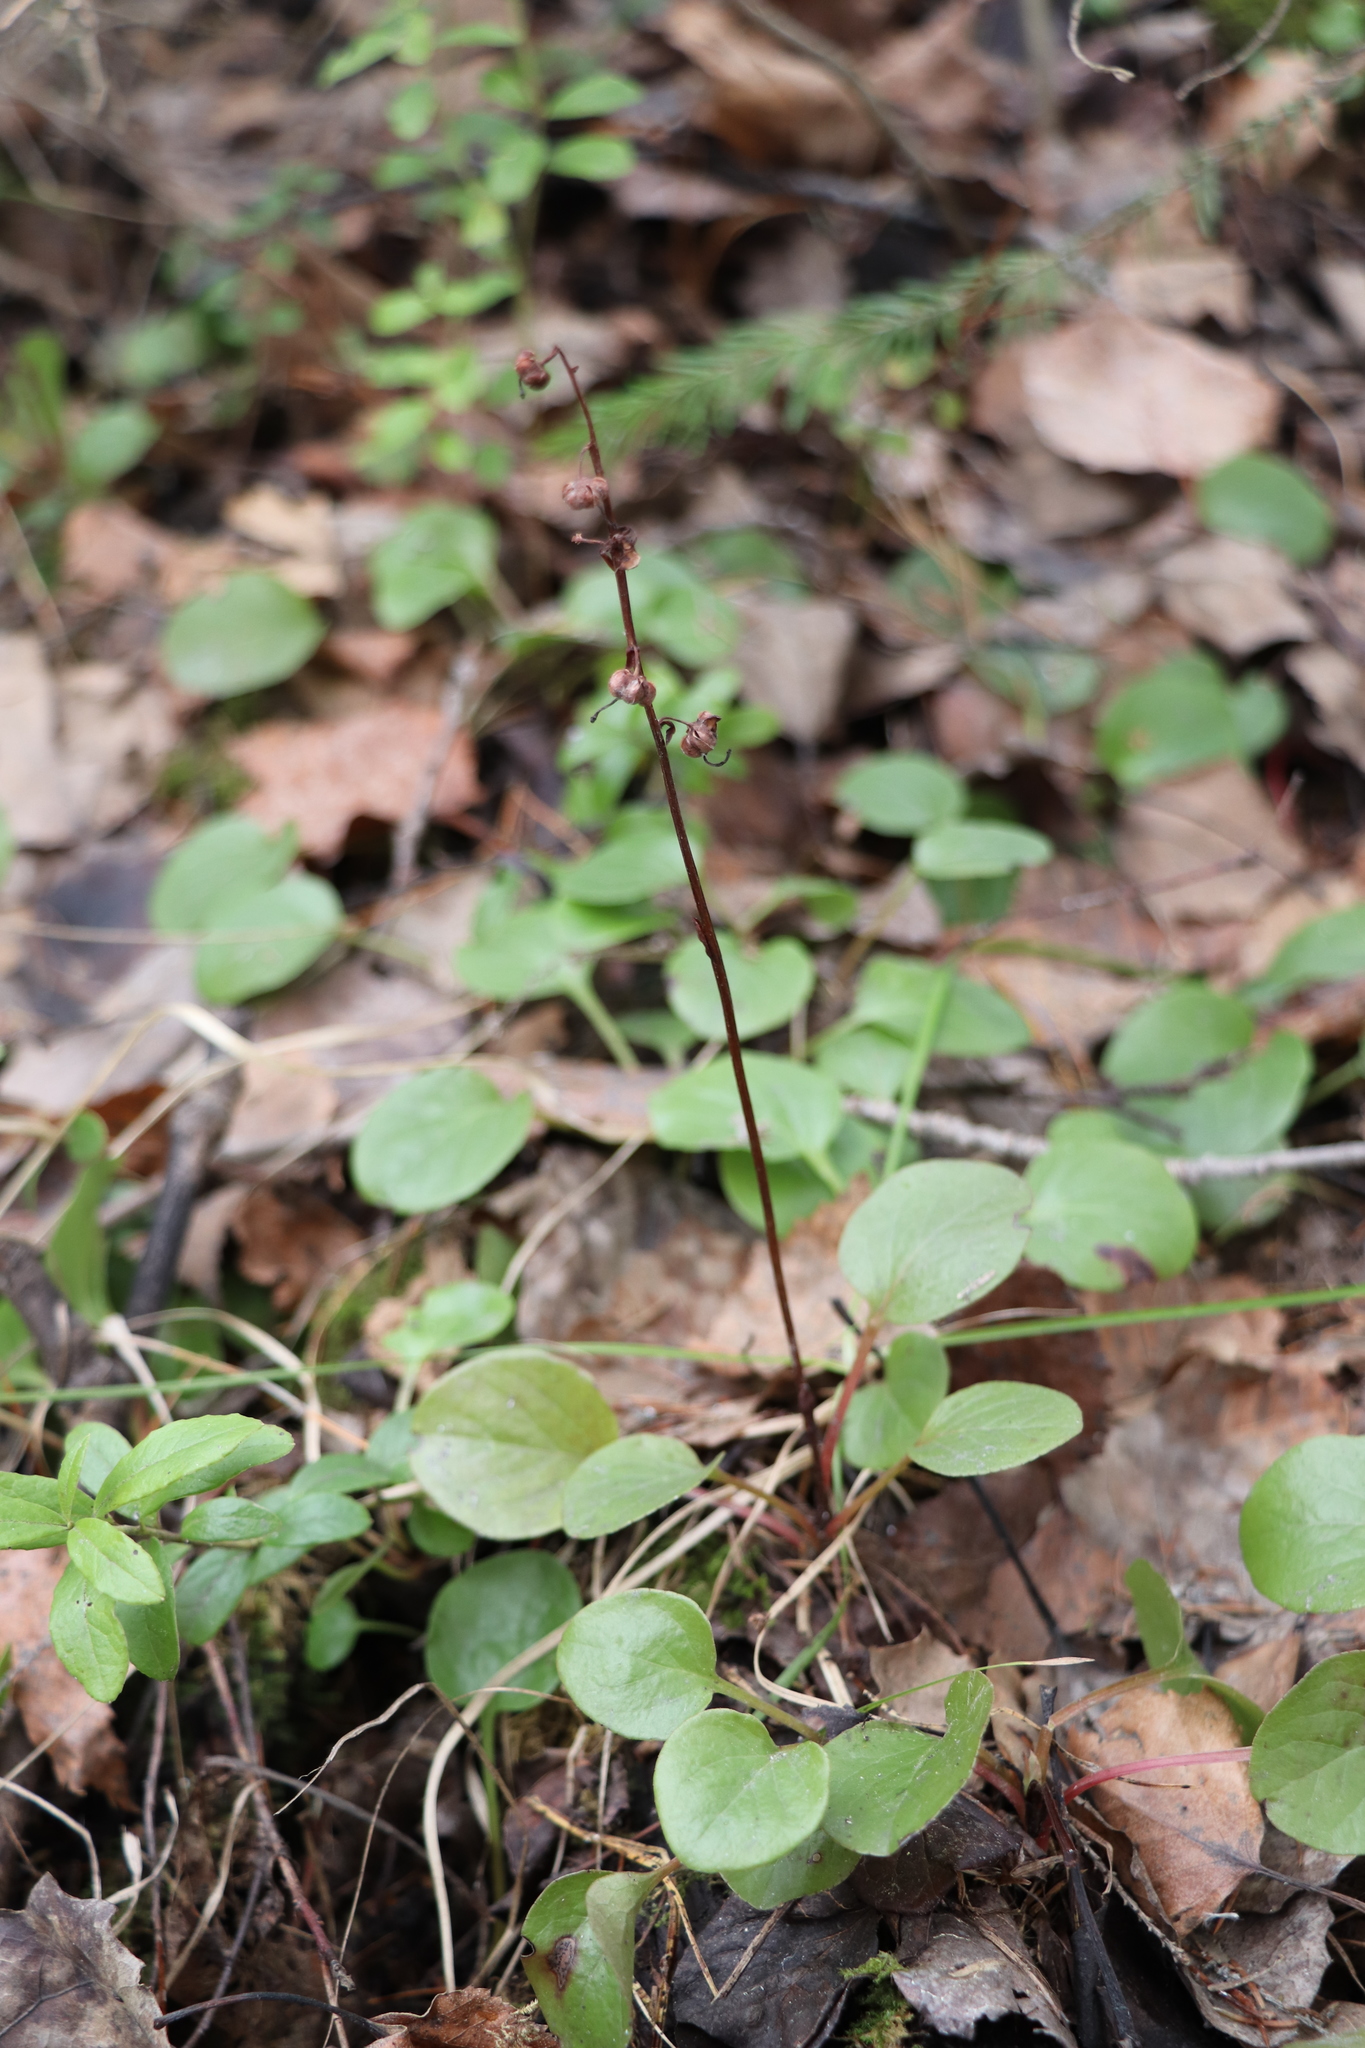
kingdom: Plantae
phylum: Tracheophyta
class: Magnoliopsida
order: Ericales
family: Ericaceae
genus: Pyrola
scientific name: Pyrola rotundifolia
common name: Round-leaved wintergreen
